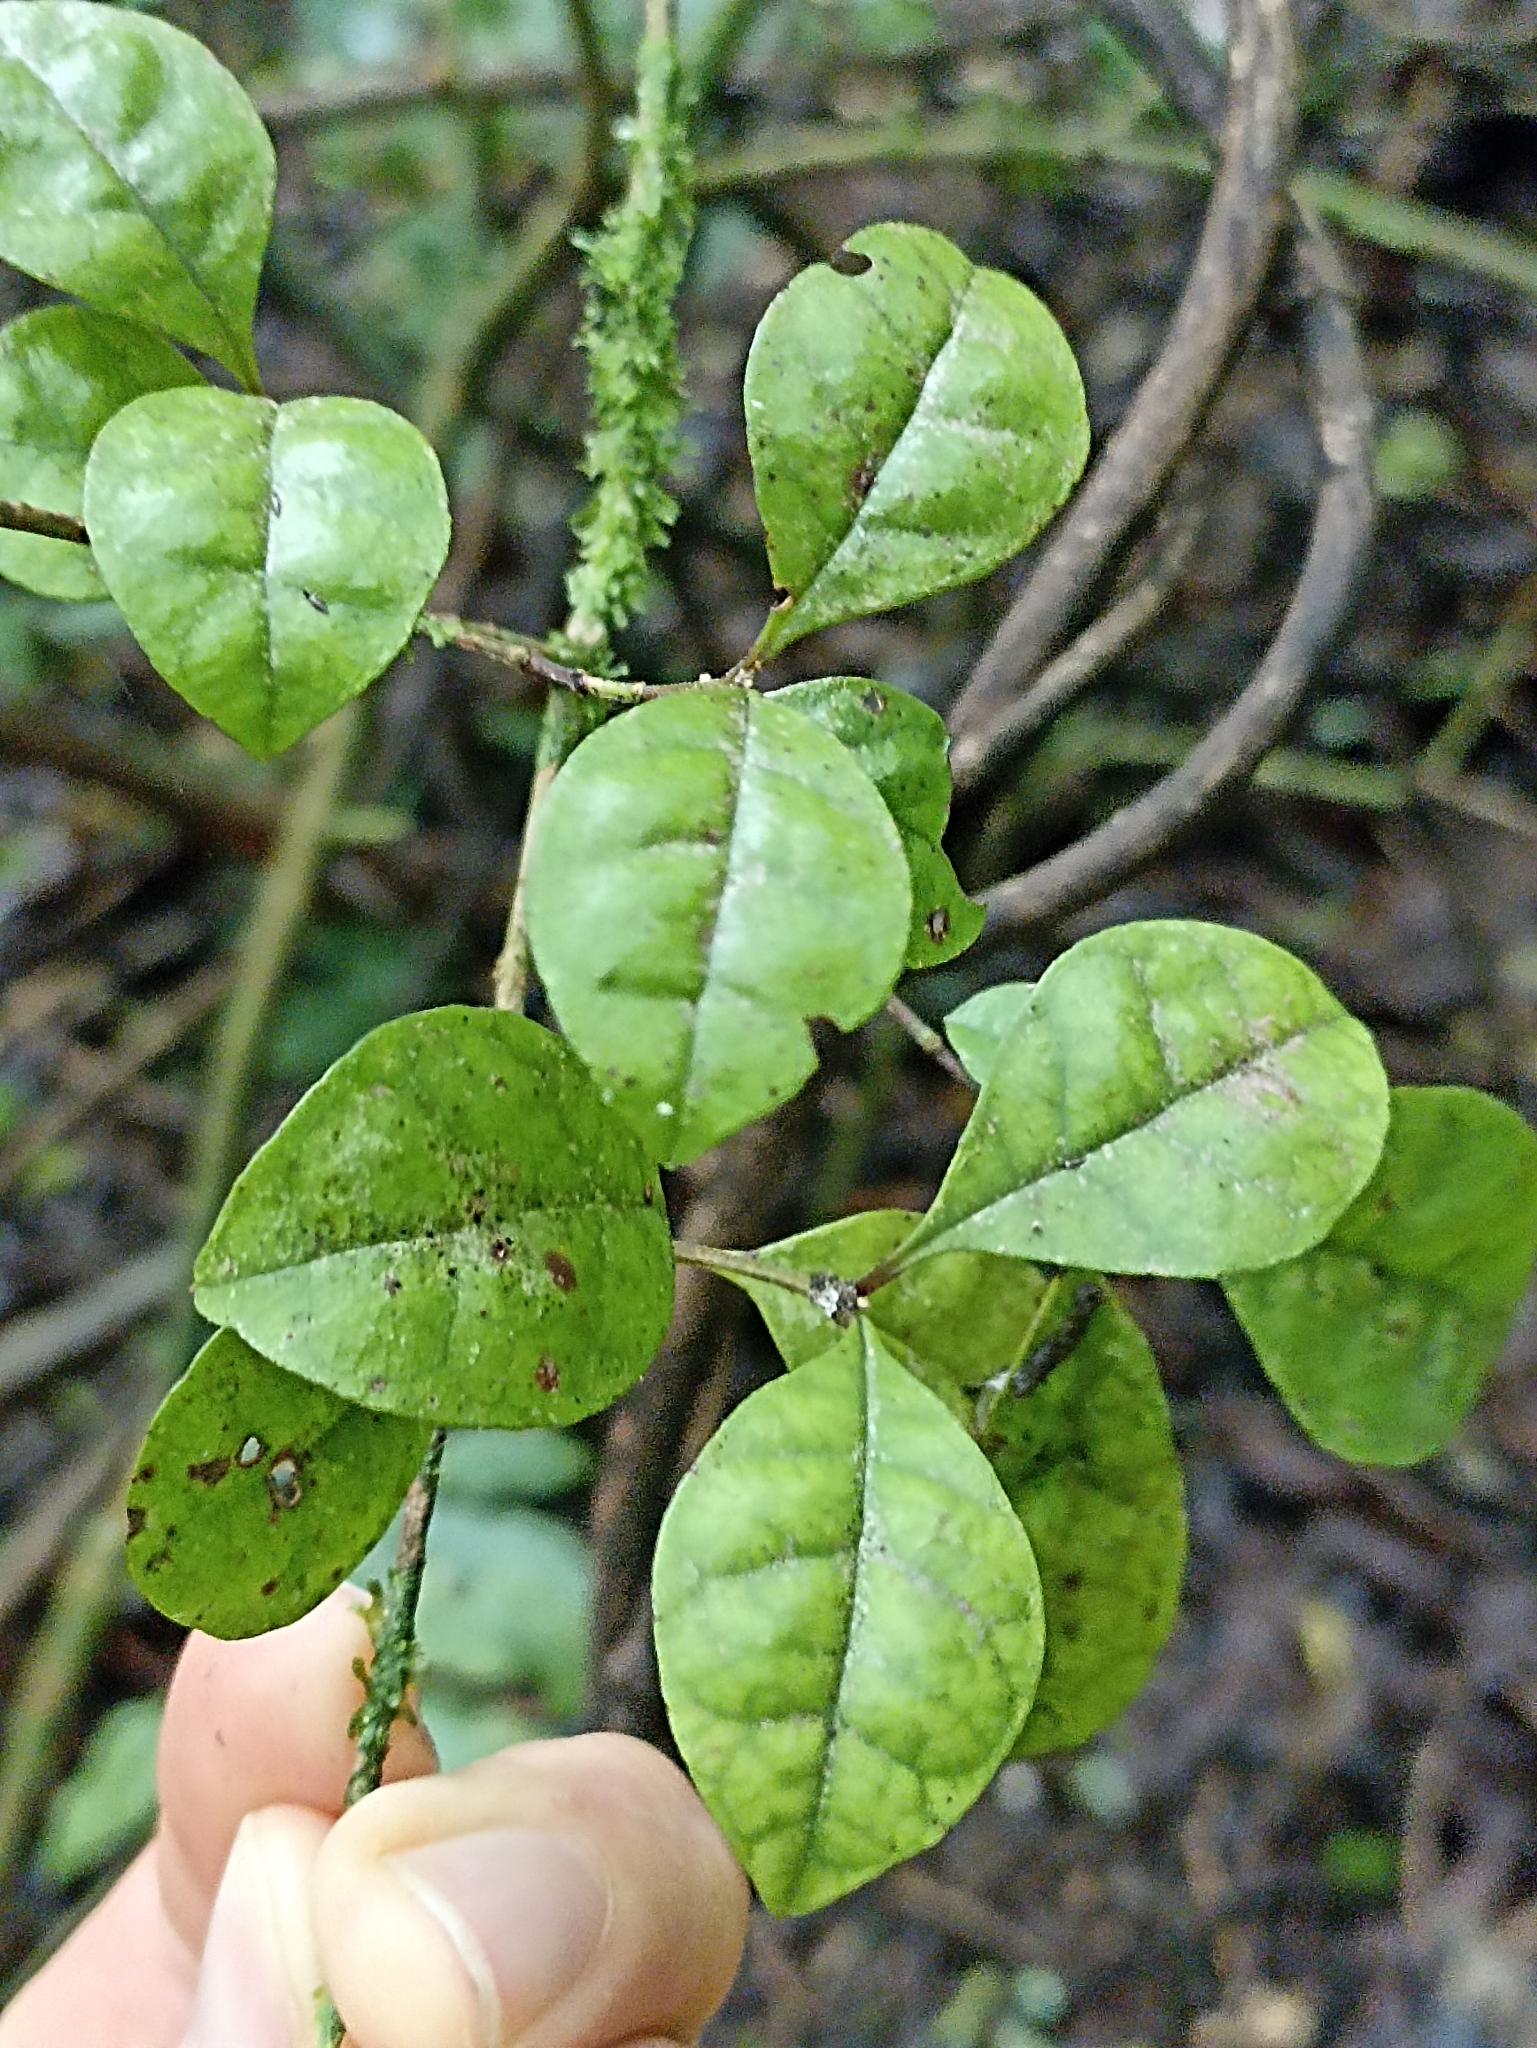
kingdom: Plantae
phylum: Tracheophyta
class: Magnoliopsida
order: Myrtales
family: Myrtaceae
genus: Lophomyrtus
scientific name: Lophomyrtus bullata
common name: Rama rama
